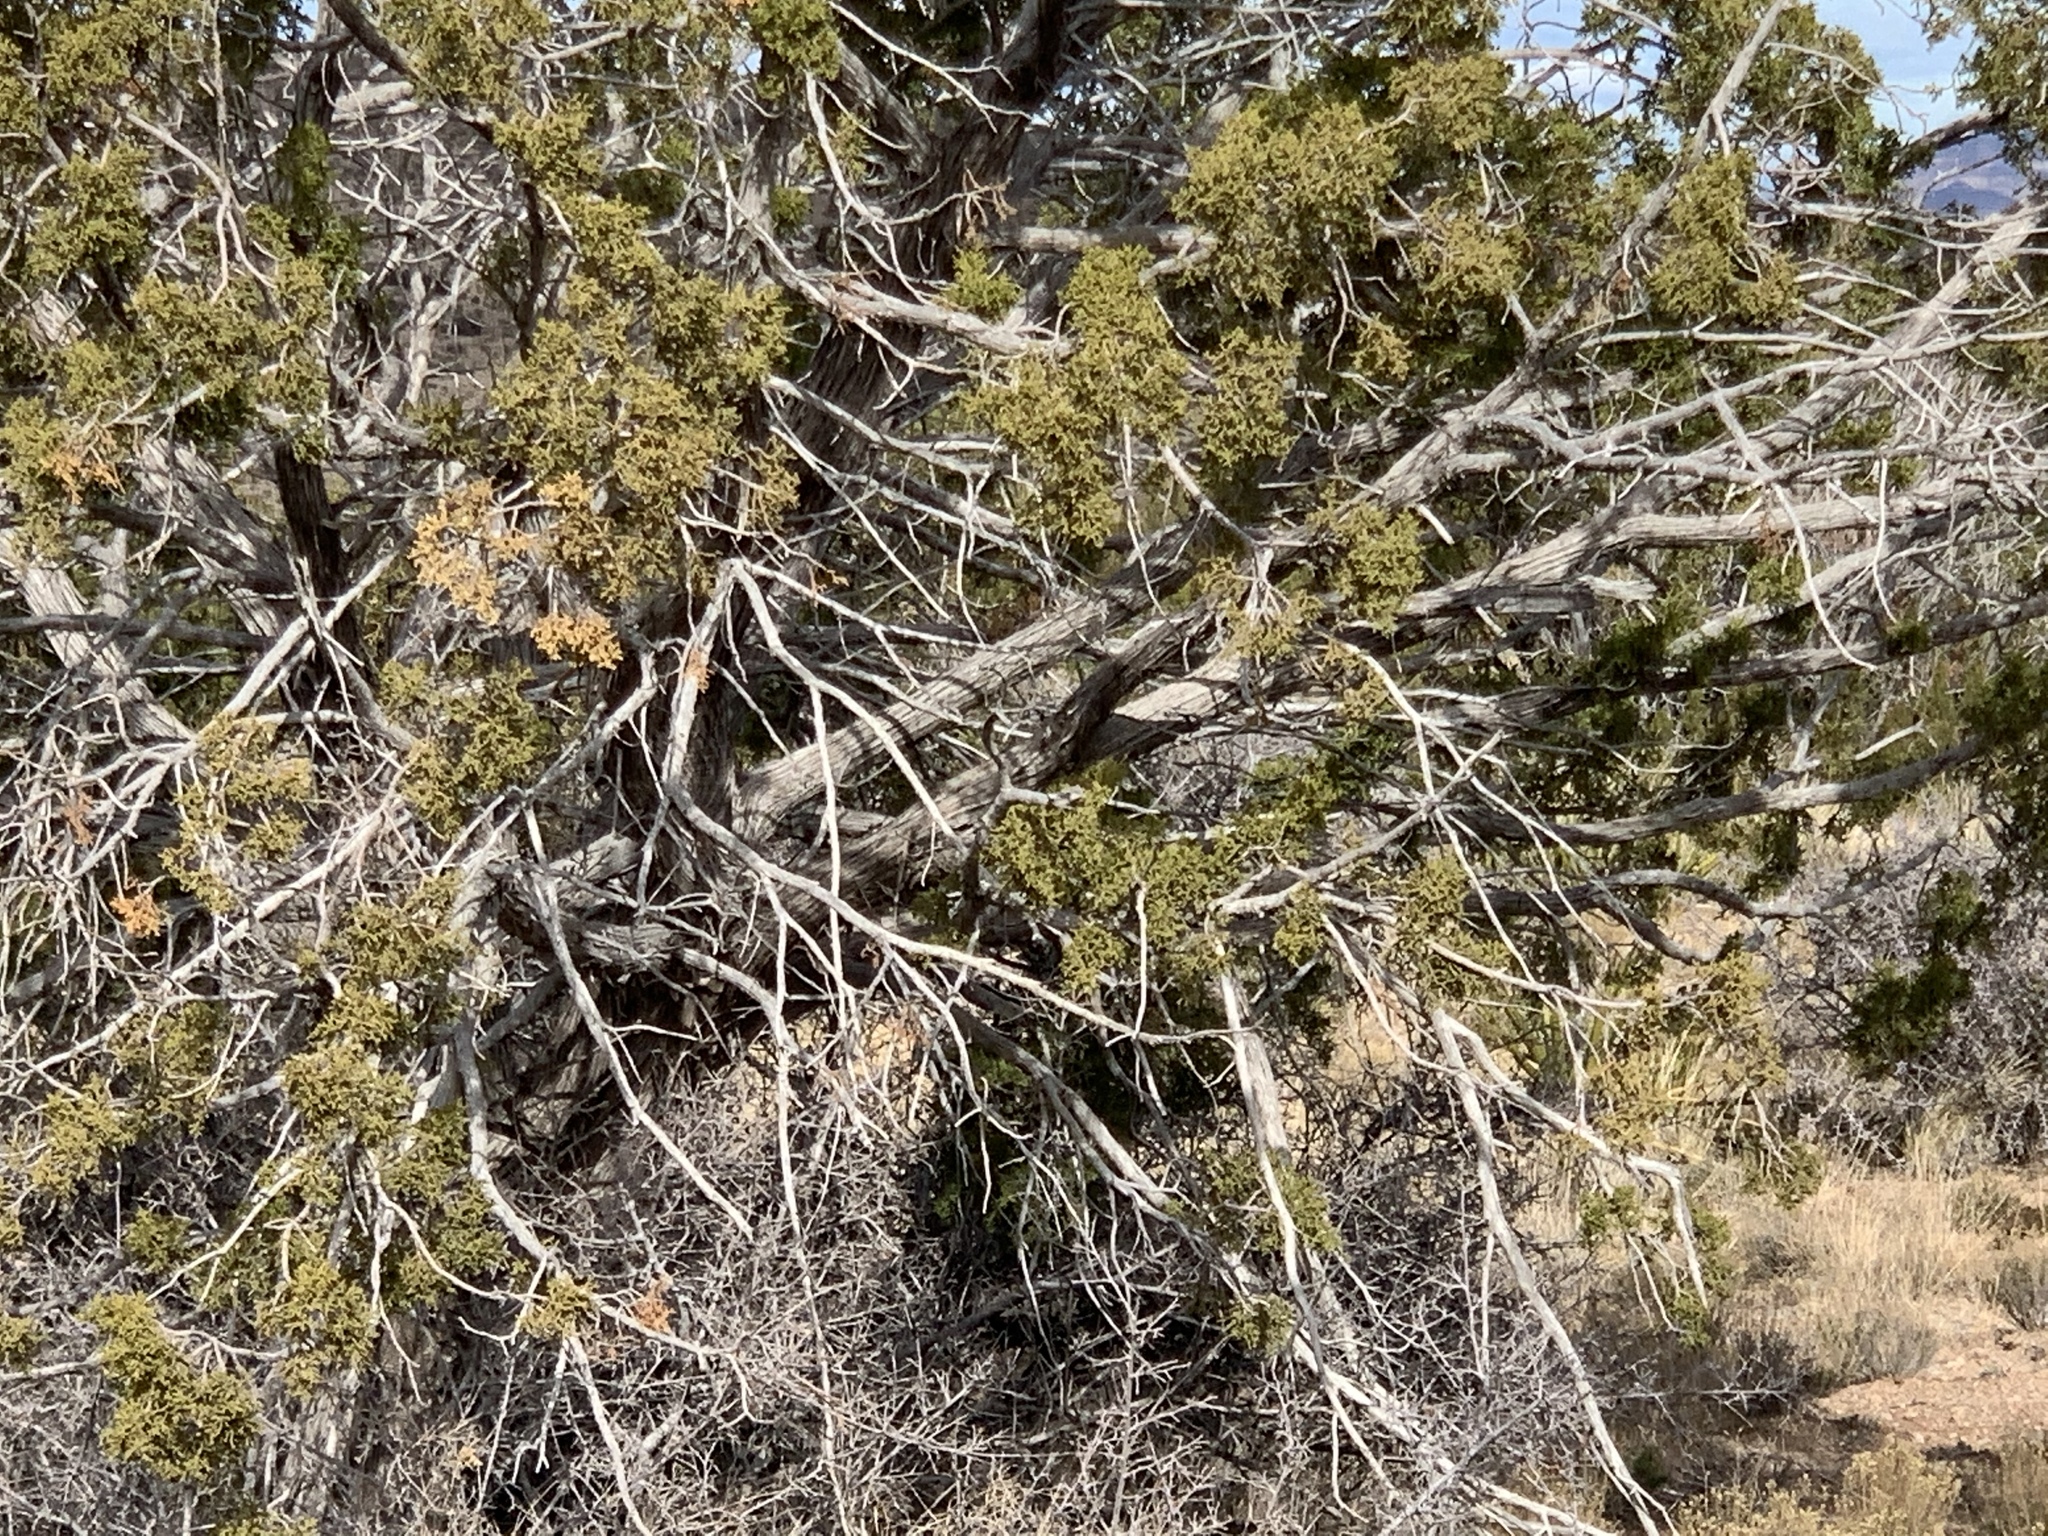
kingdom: Plantae
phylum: Tracheophyta
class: Pinopsida
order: Pinales
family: Cupressaceae
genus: Juniperus
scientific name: Juniperus monosperma
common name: One-seed juniper
